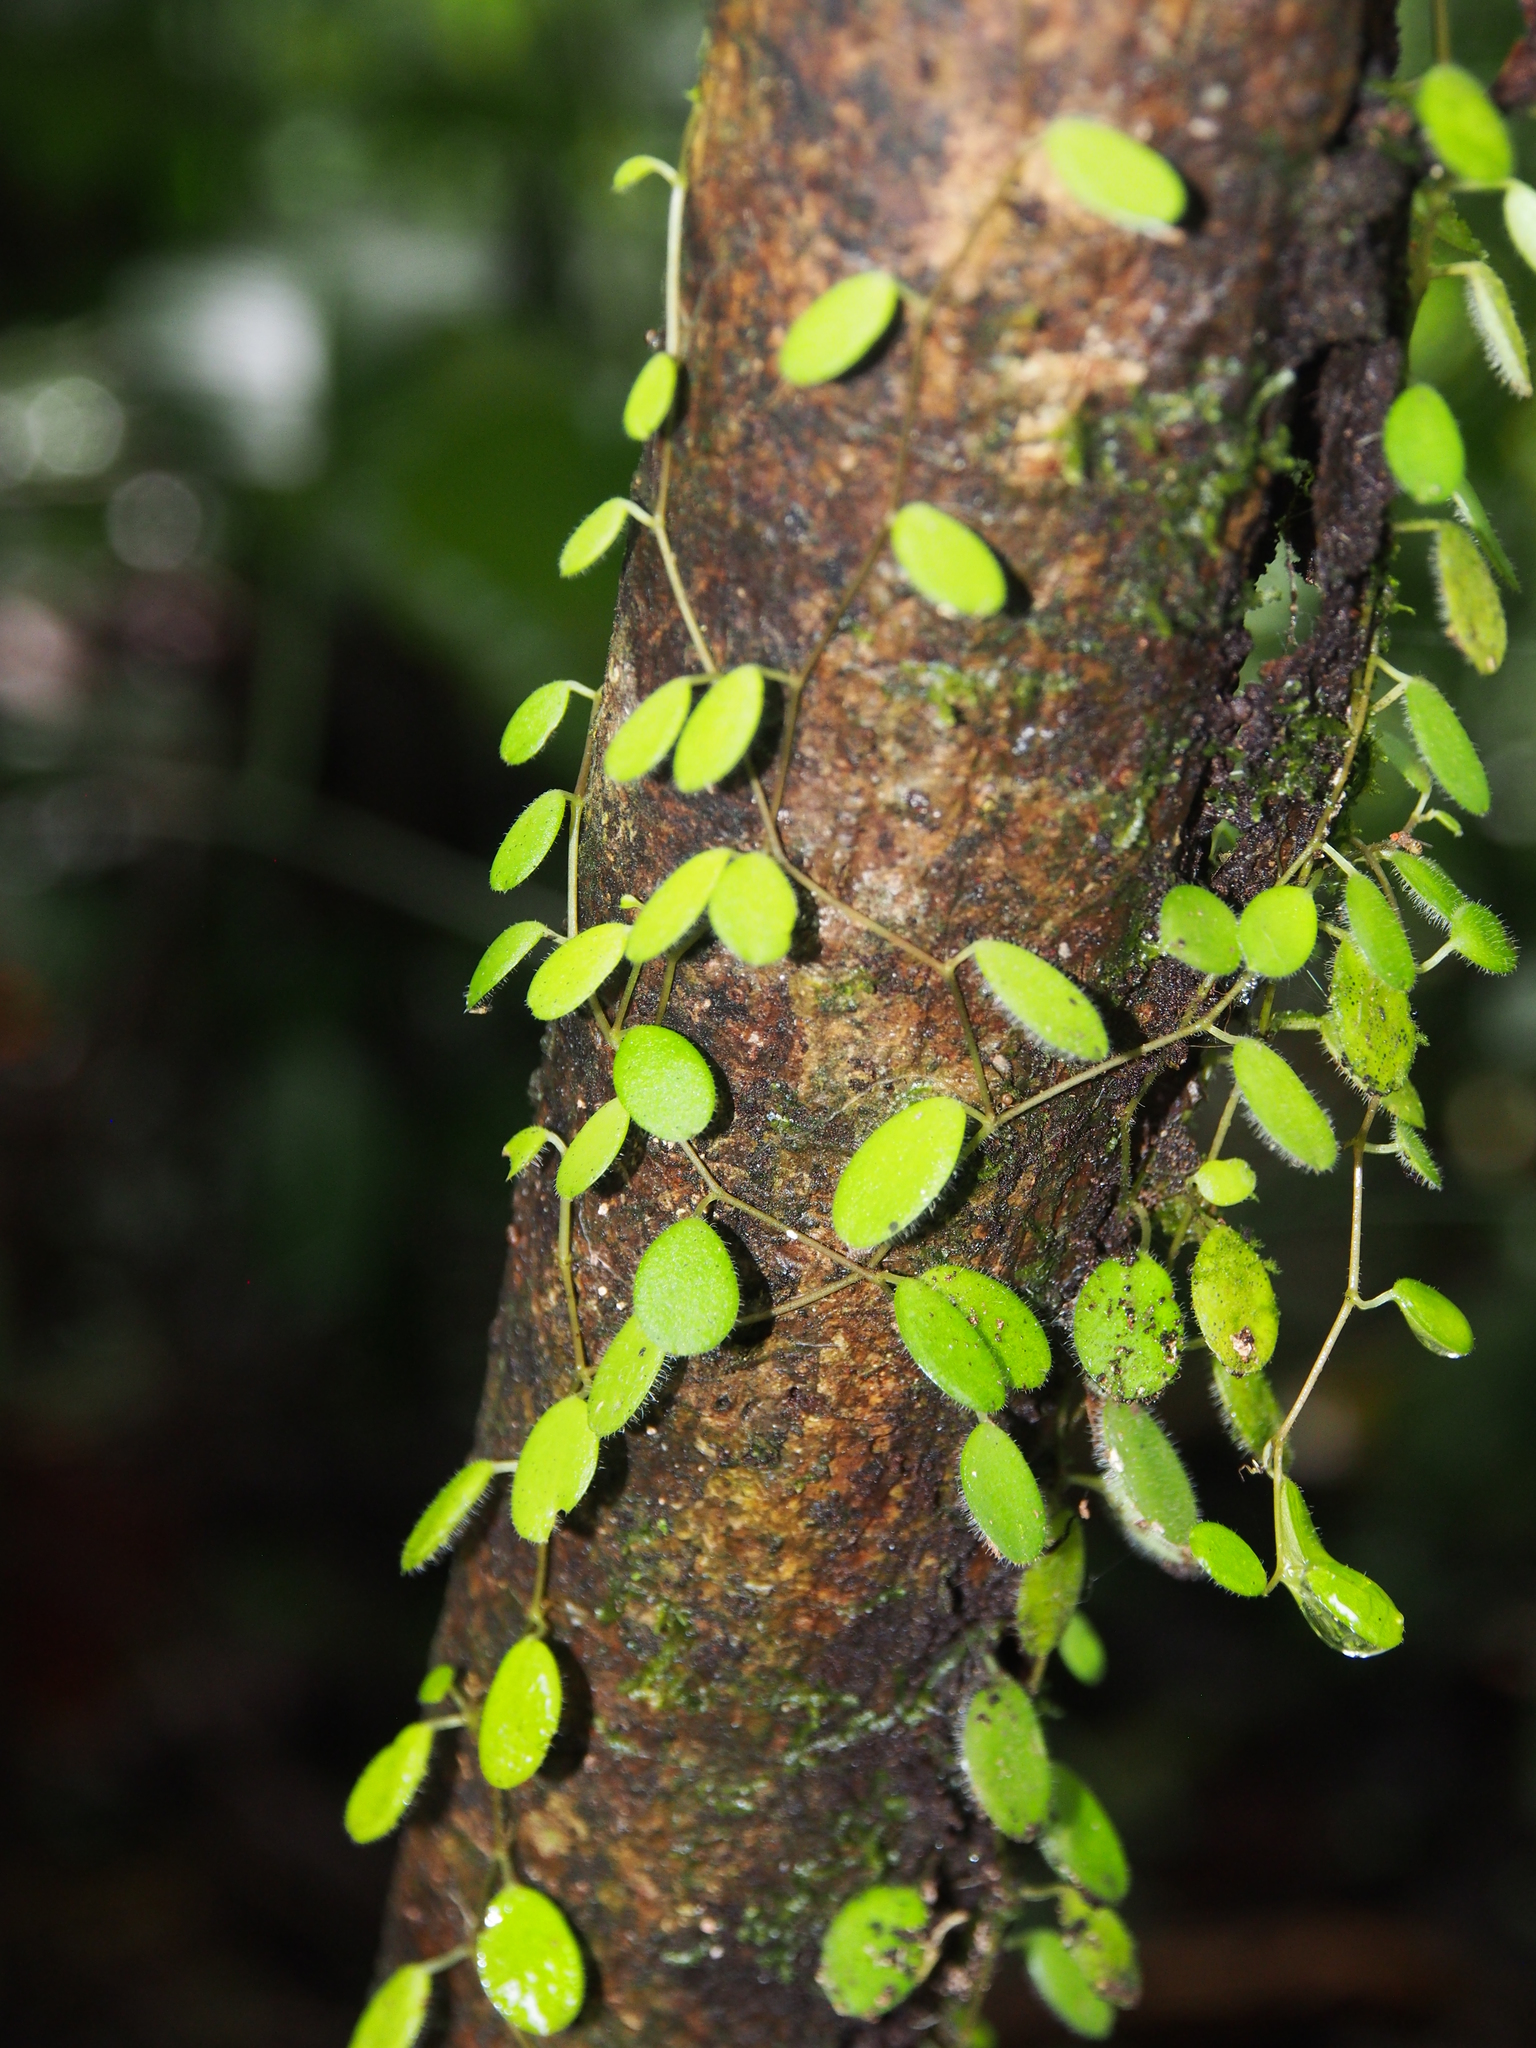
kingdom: Plantae
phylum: Tracheophyta
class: Magnoliopsida
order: Piperales
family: Piperaceae
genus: Peperomia
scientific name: Peperomia rotundifolia
